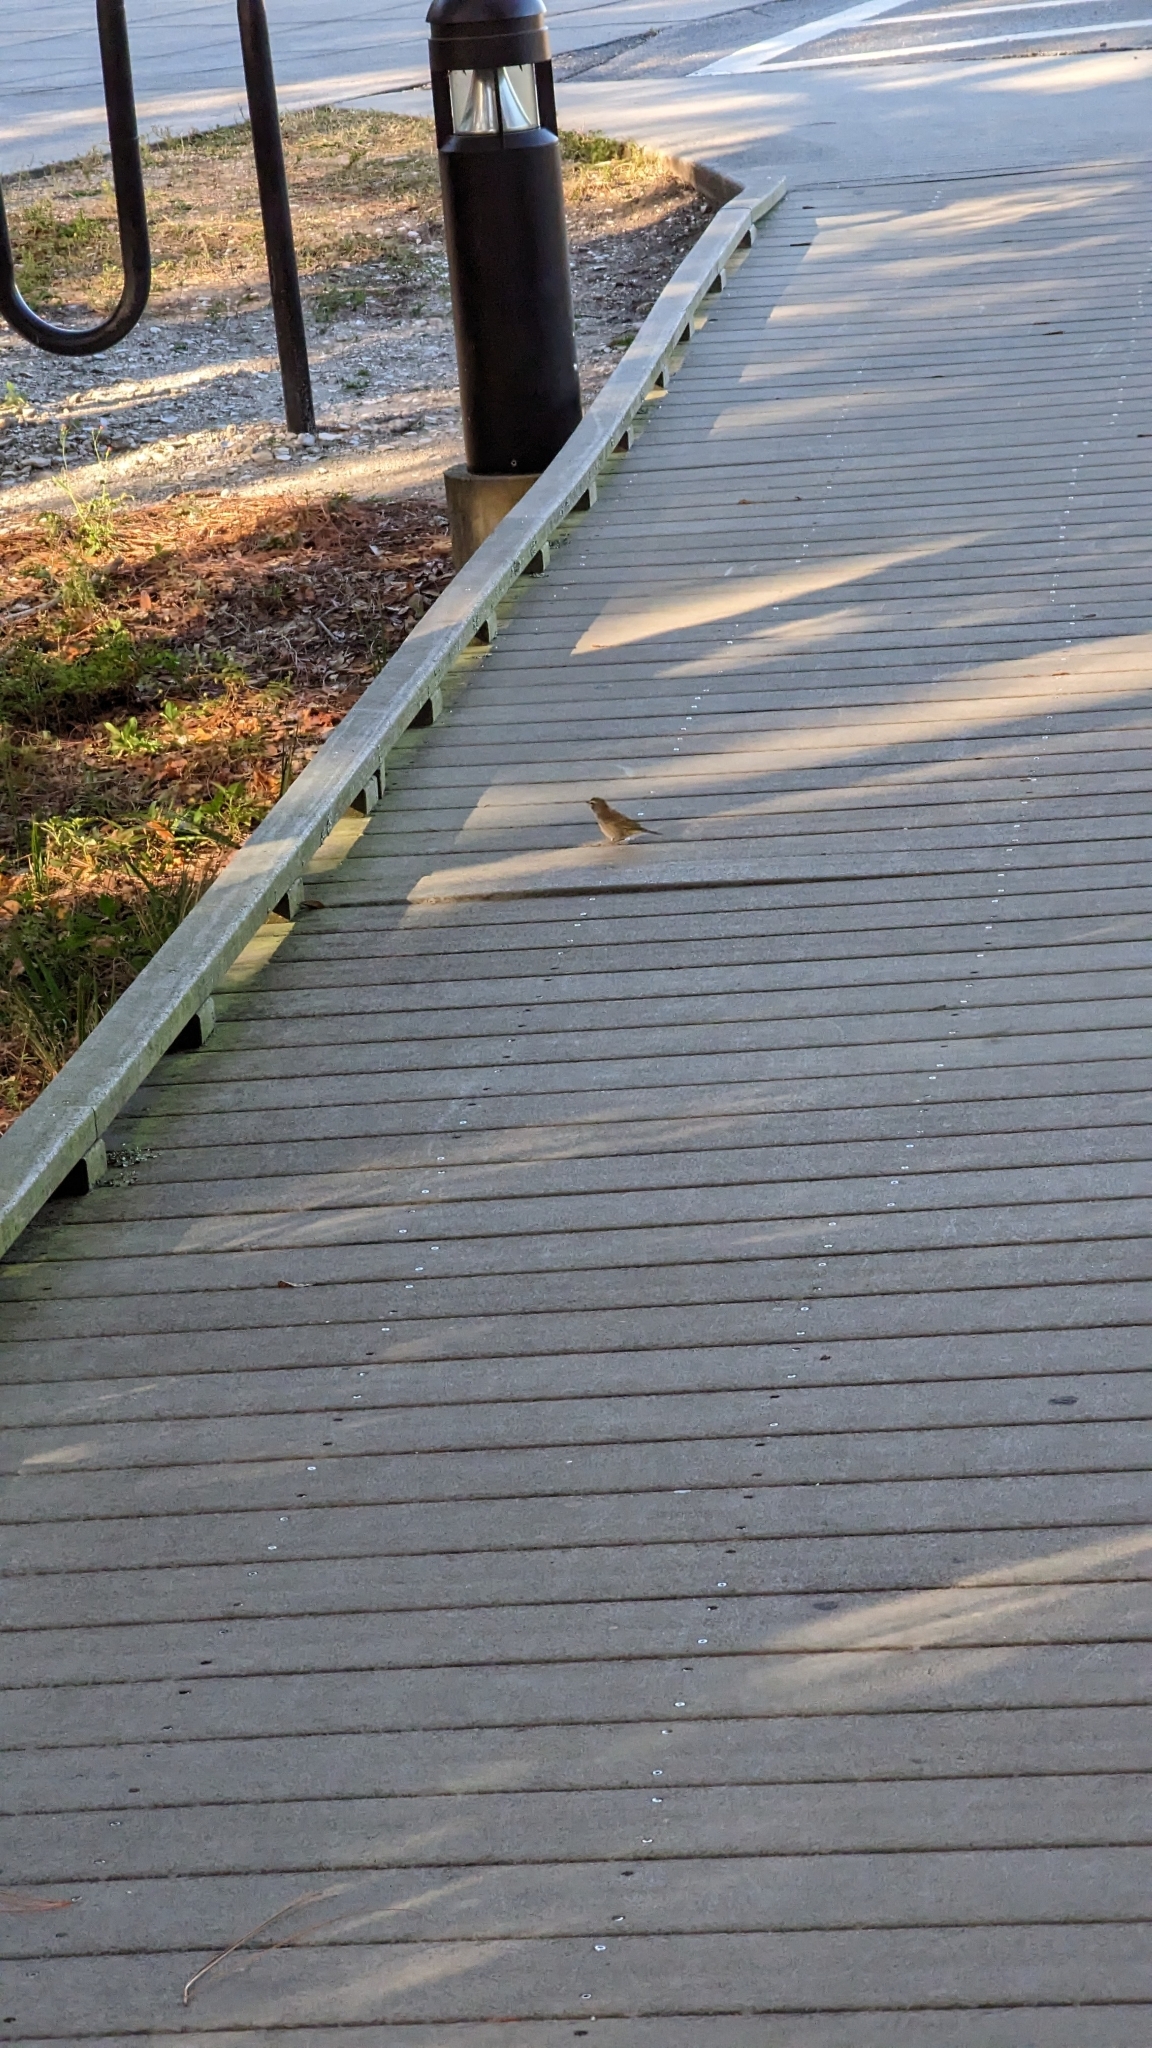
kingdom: Animalia
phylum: Chordata
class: Aves
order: Passeriformes
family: Parulidae
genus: Setophaga
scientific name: Setophaga palmarum
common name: Palm warbler
